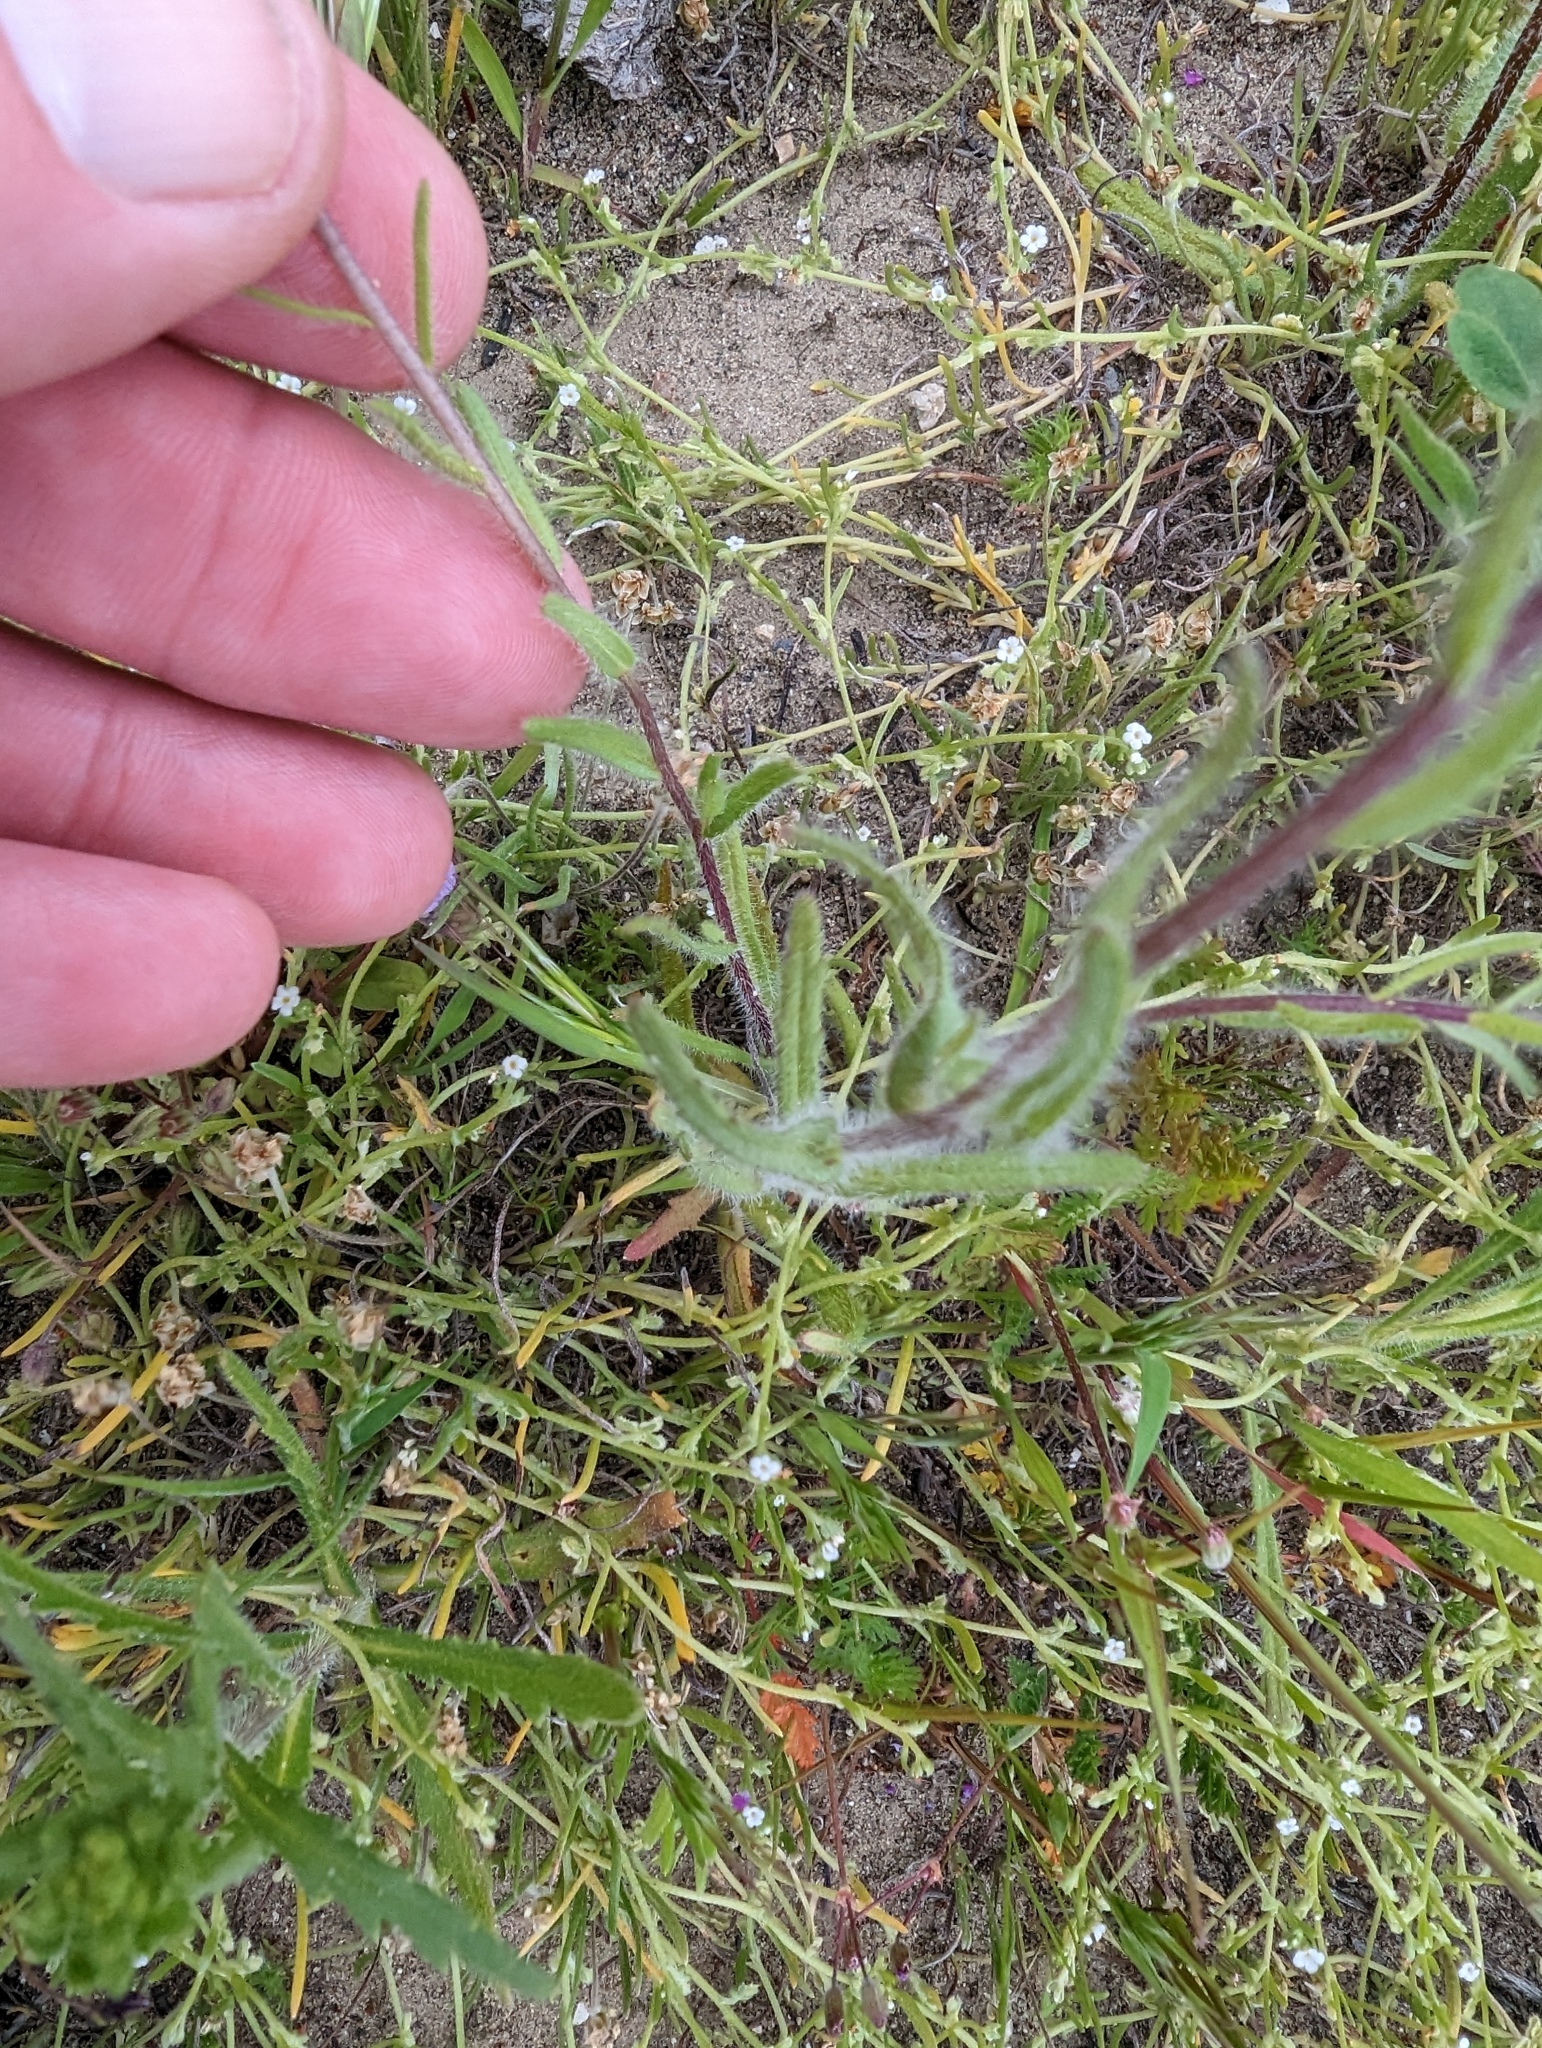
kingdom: Plantae
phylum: Tracheophyta
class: Magnoliopsida
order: Asterales
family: Asteraceae
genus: Layia
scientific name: Layia glandulosa
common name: White layia
